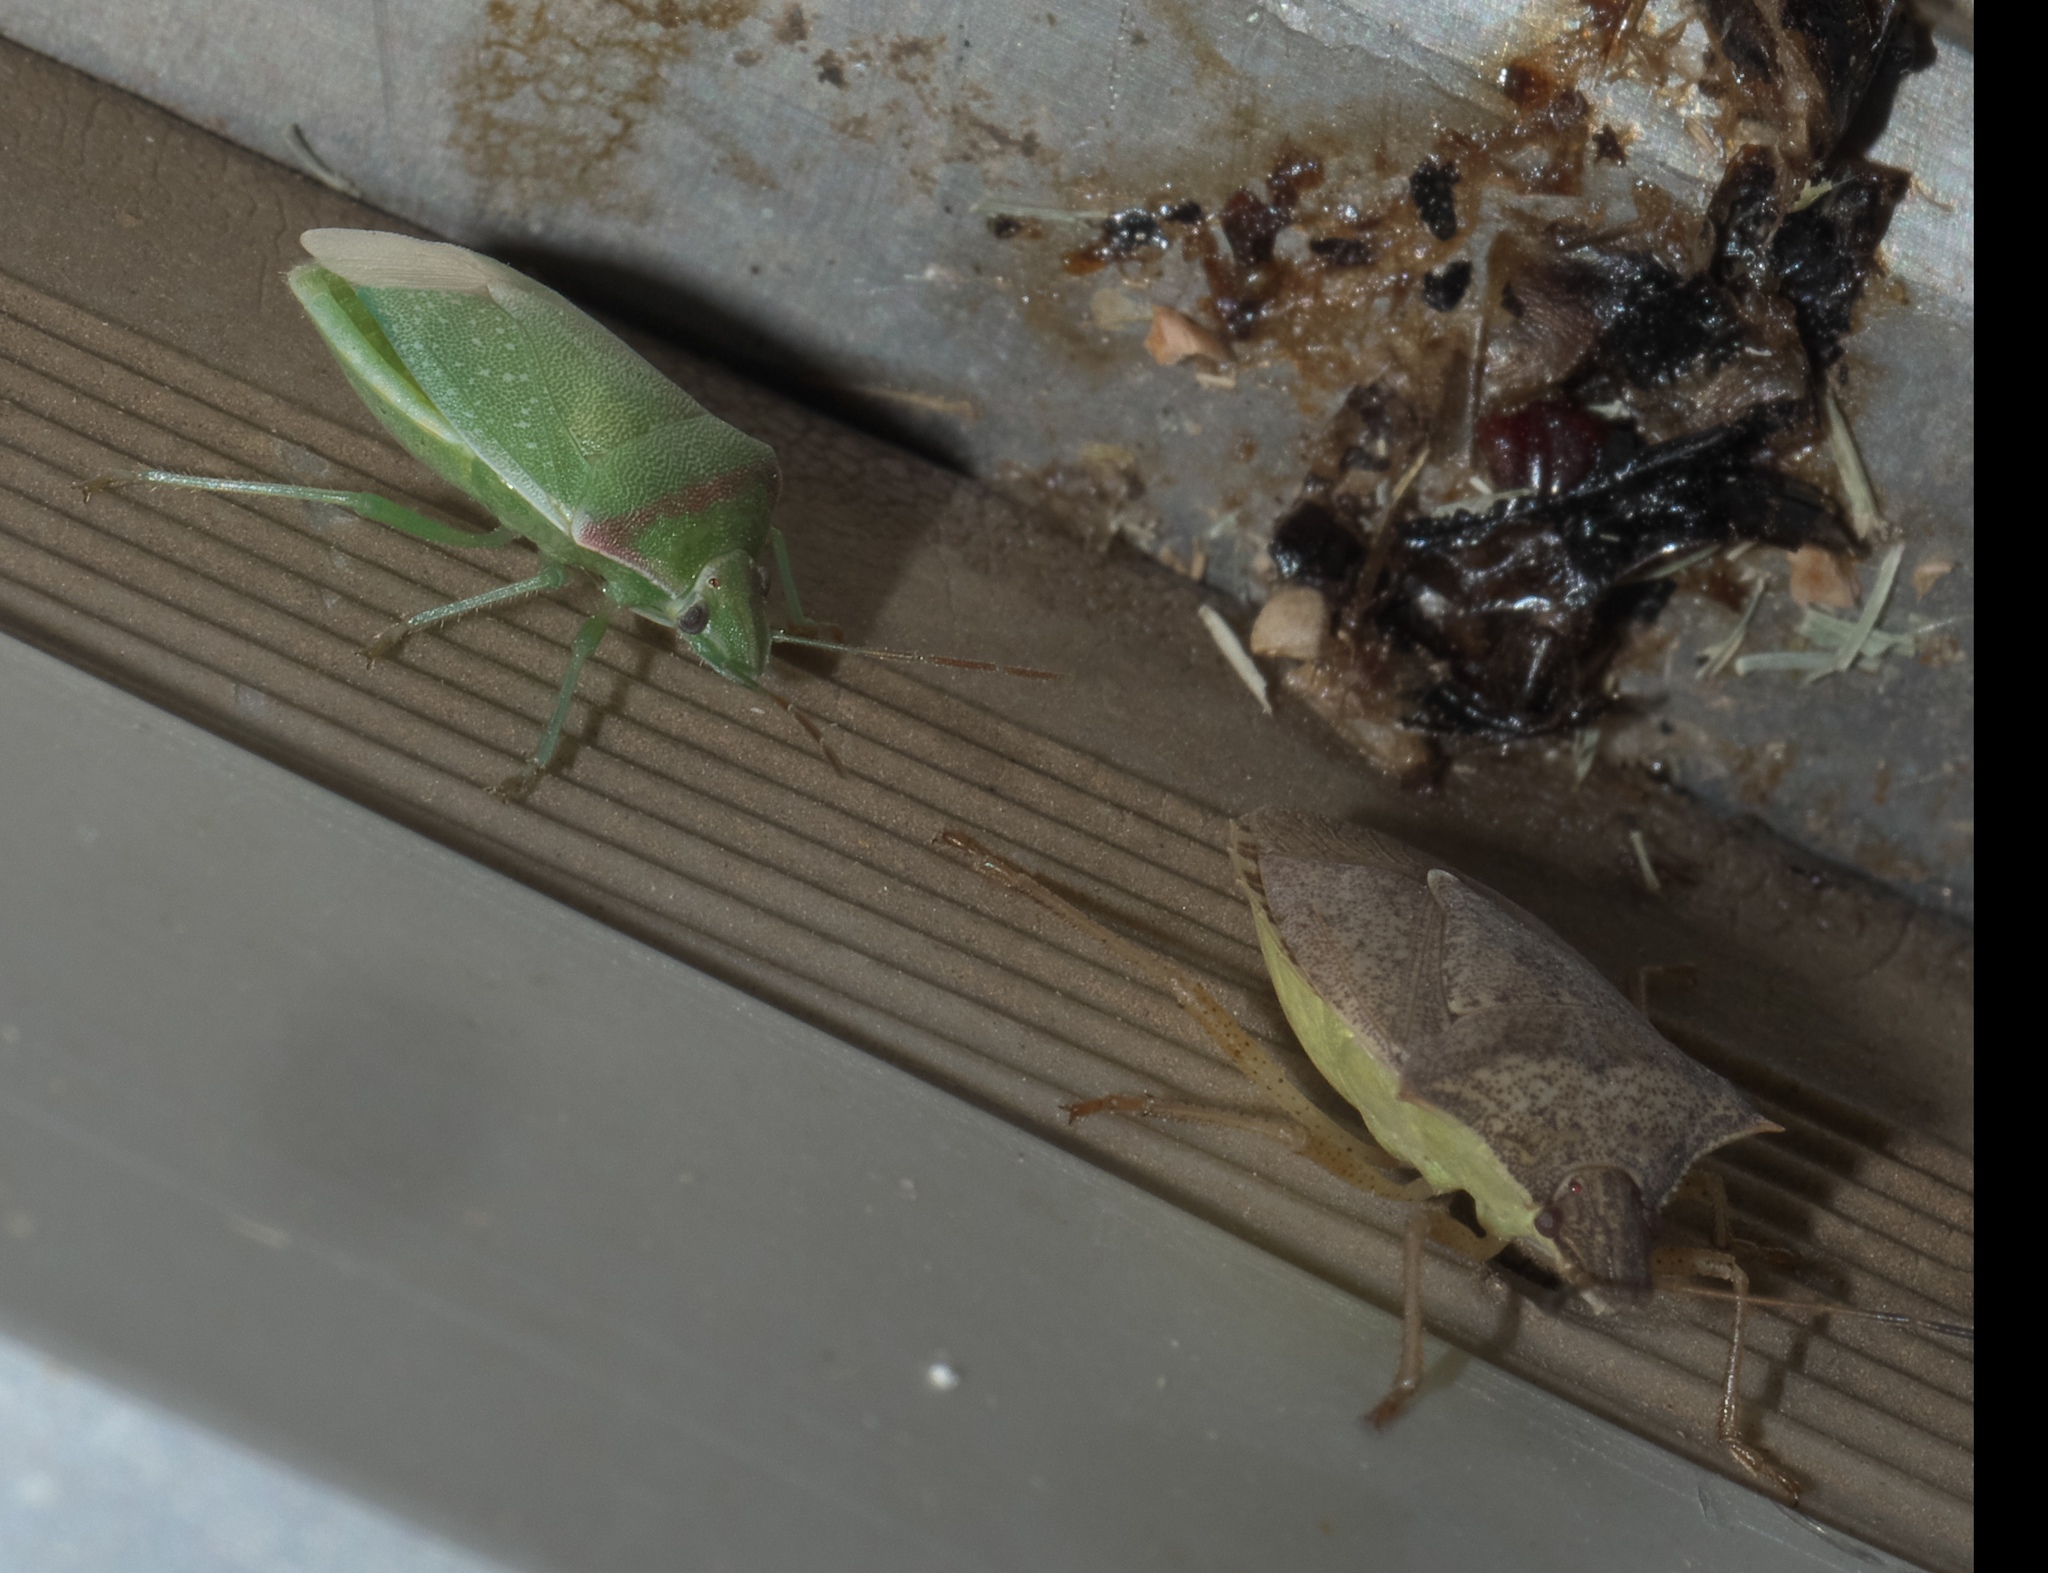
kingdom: Animalia
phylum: Arthropoda
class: Insecta
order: Hemiptera
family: Pentatomidae
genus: Thyanta
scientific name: Thyanta accerra
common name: Stink bug
